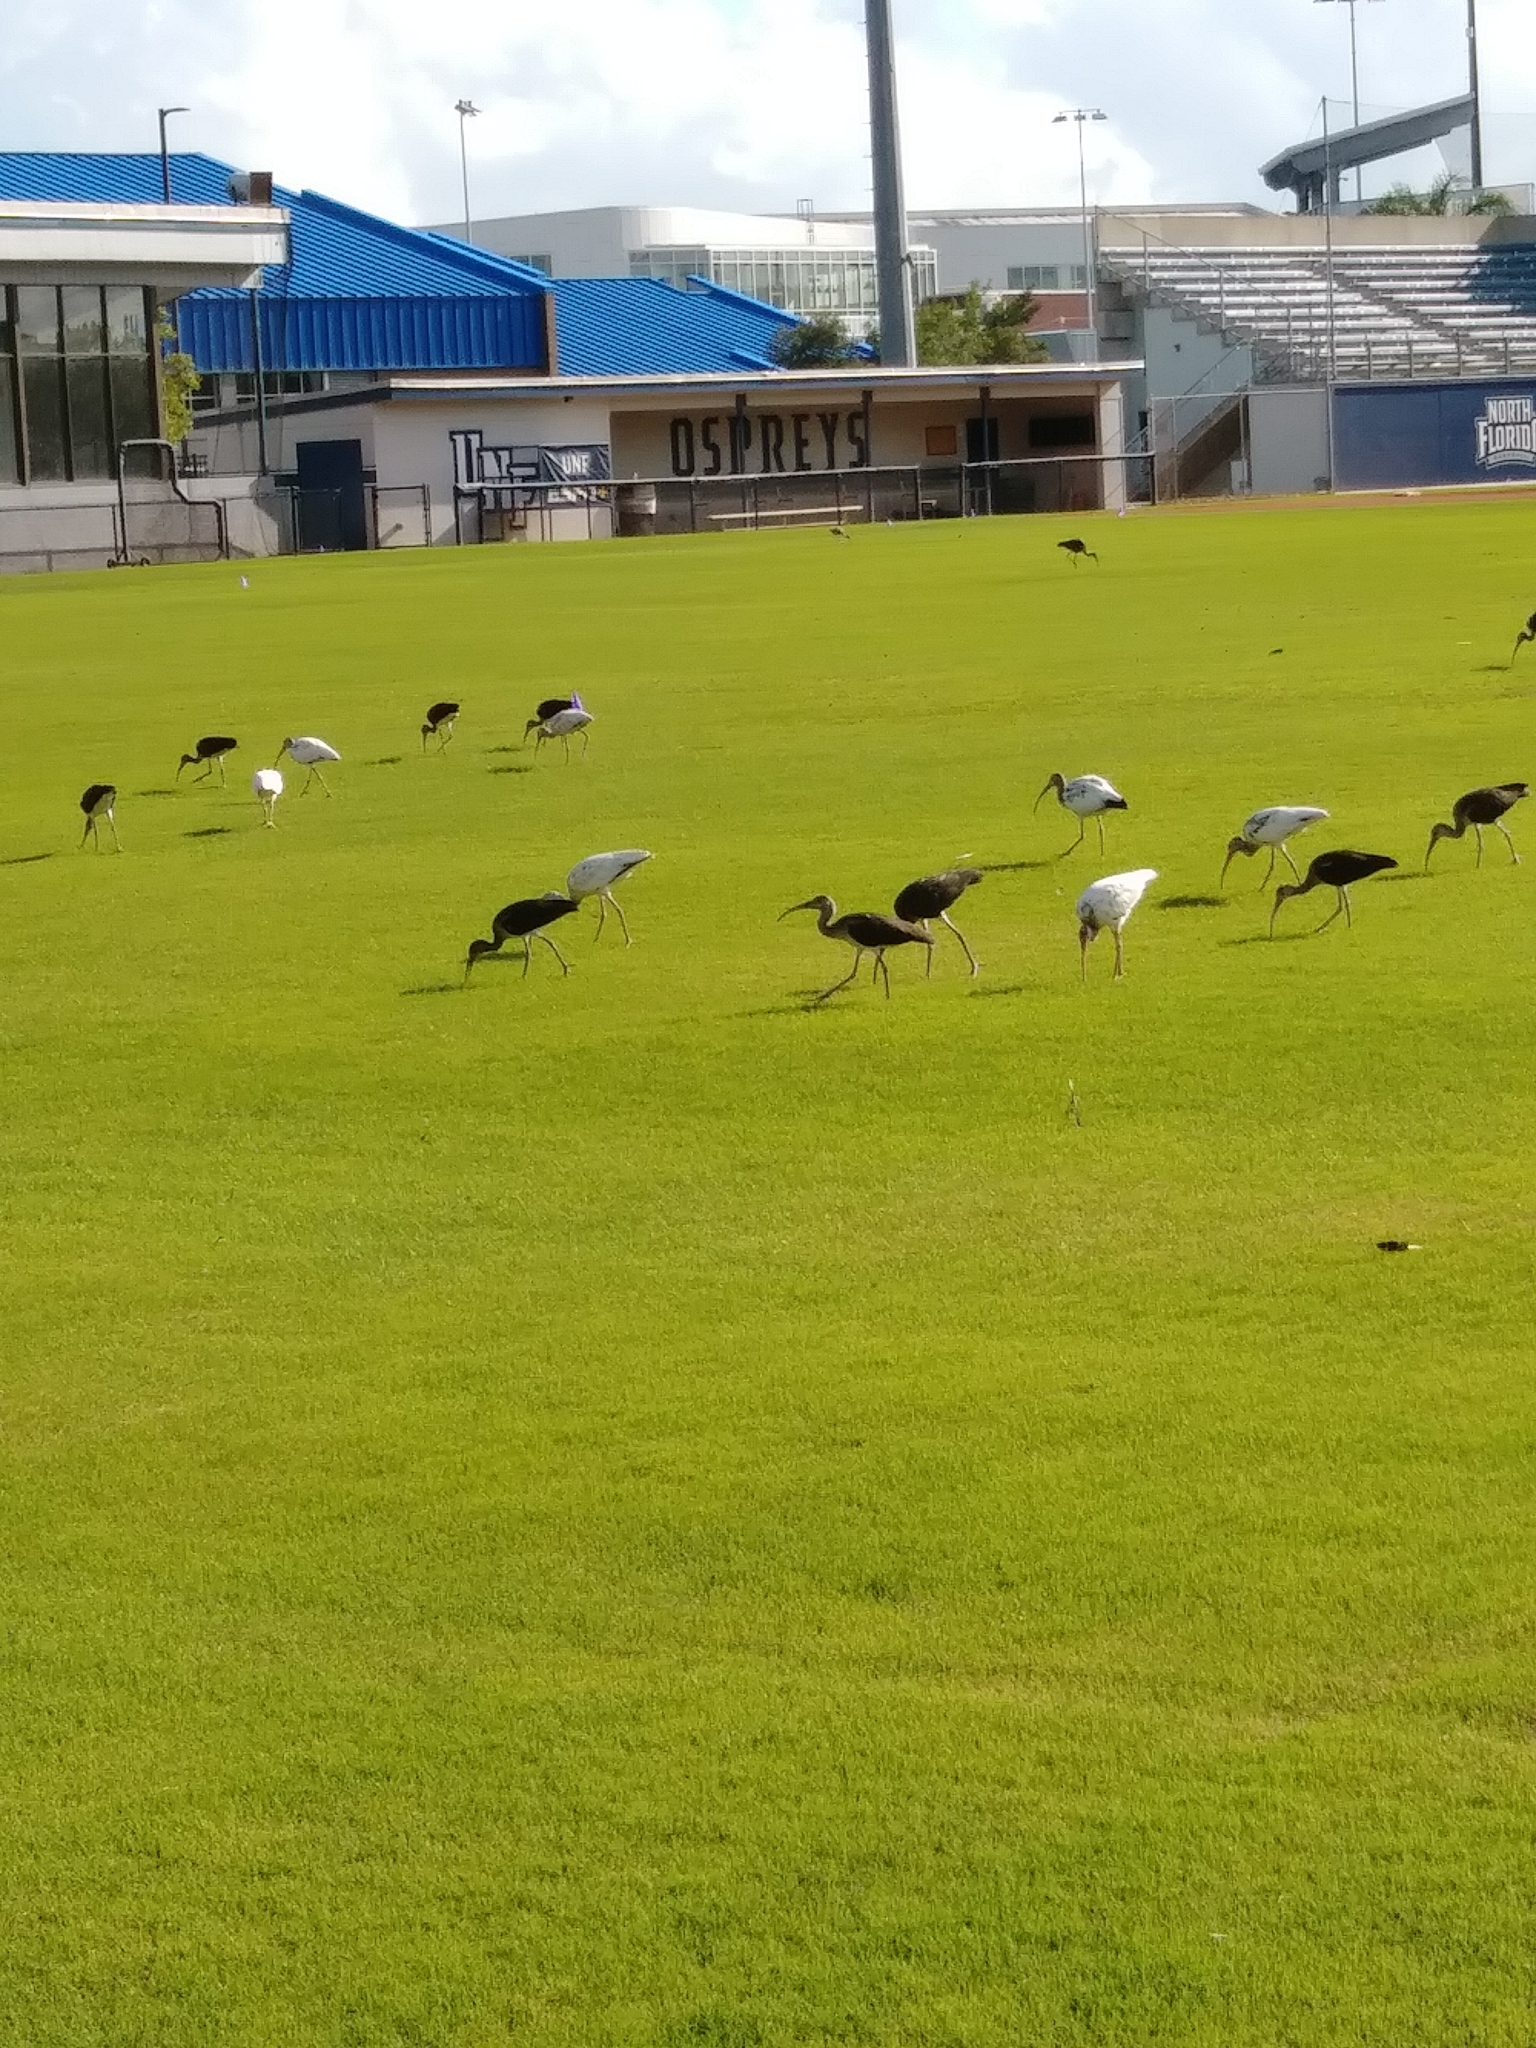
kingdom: Animalia
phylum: Chordata
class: Aves
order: Pelecaniformes
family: Threskiornithidae
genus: Eudocimus
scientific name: Eudocimus albus
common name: White ibis
